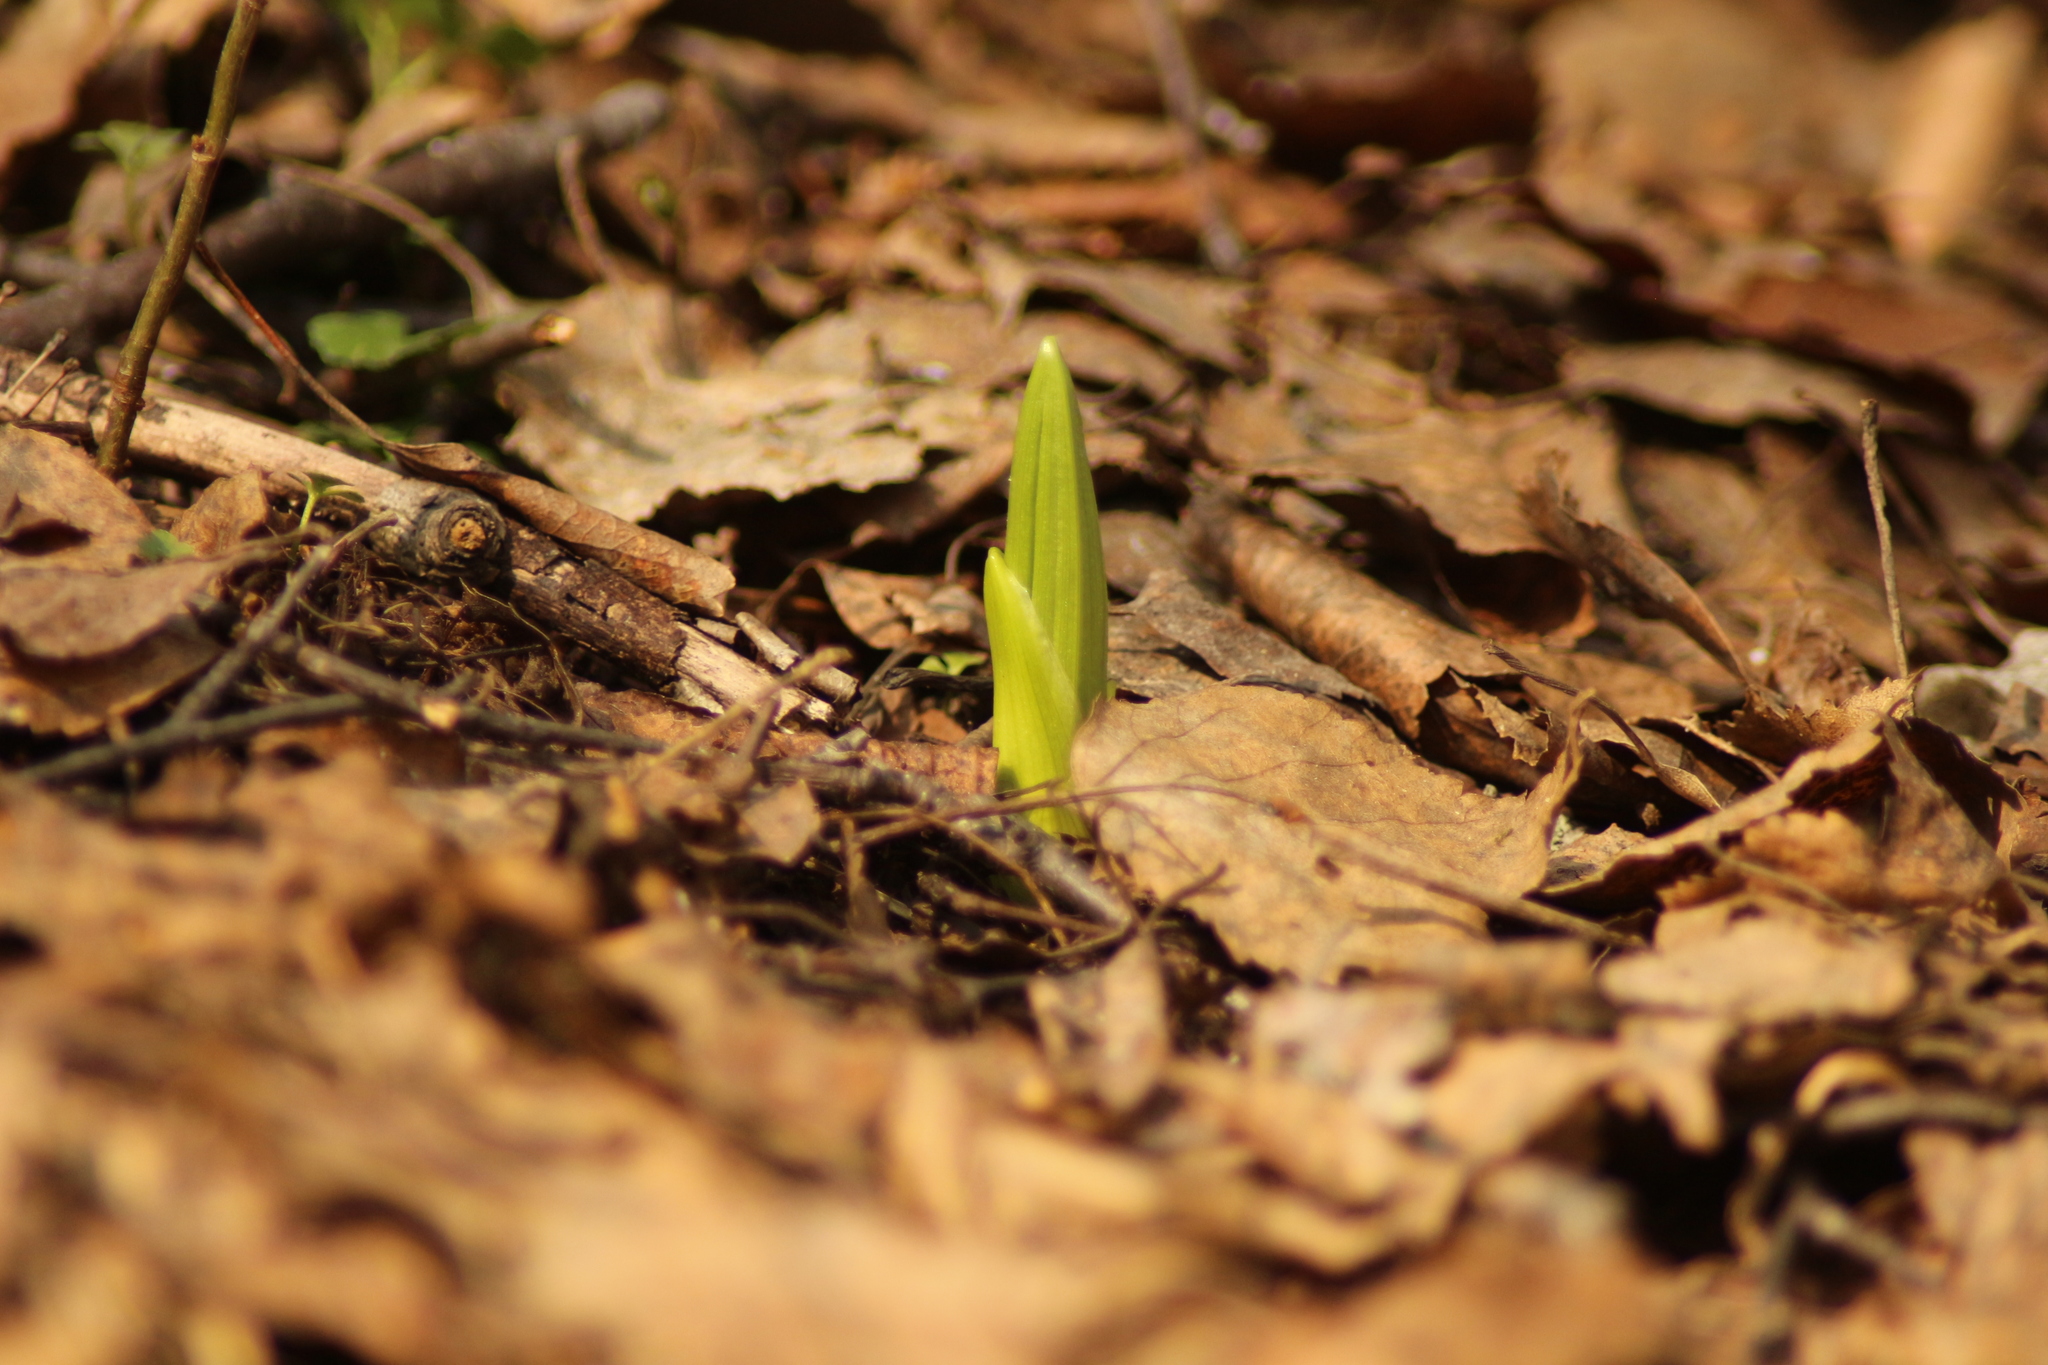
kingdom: Plantae
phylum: Tracheophyta
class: Liliopsida
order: Liliales
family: Melanthiaceae
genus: Veratrum
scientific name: Veratrum lobelianum
